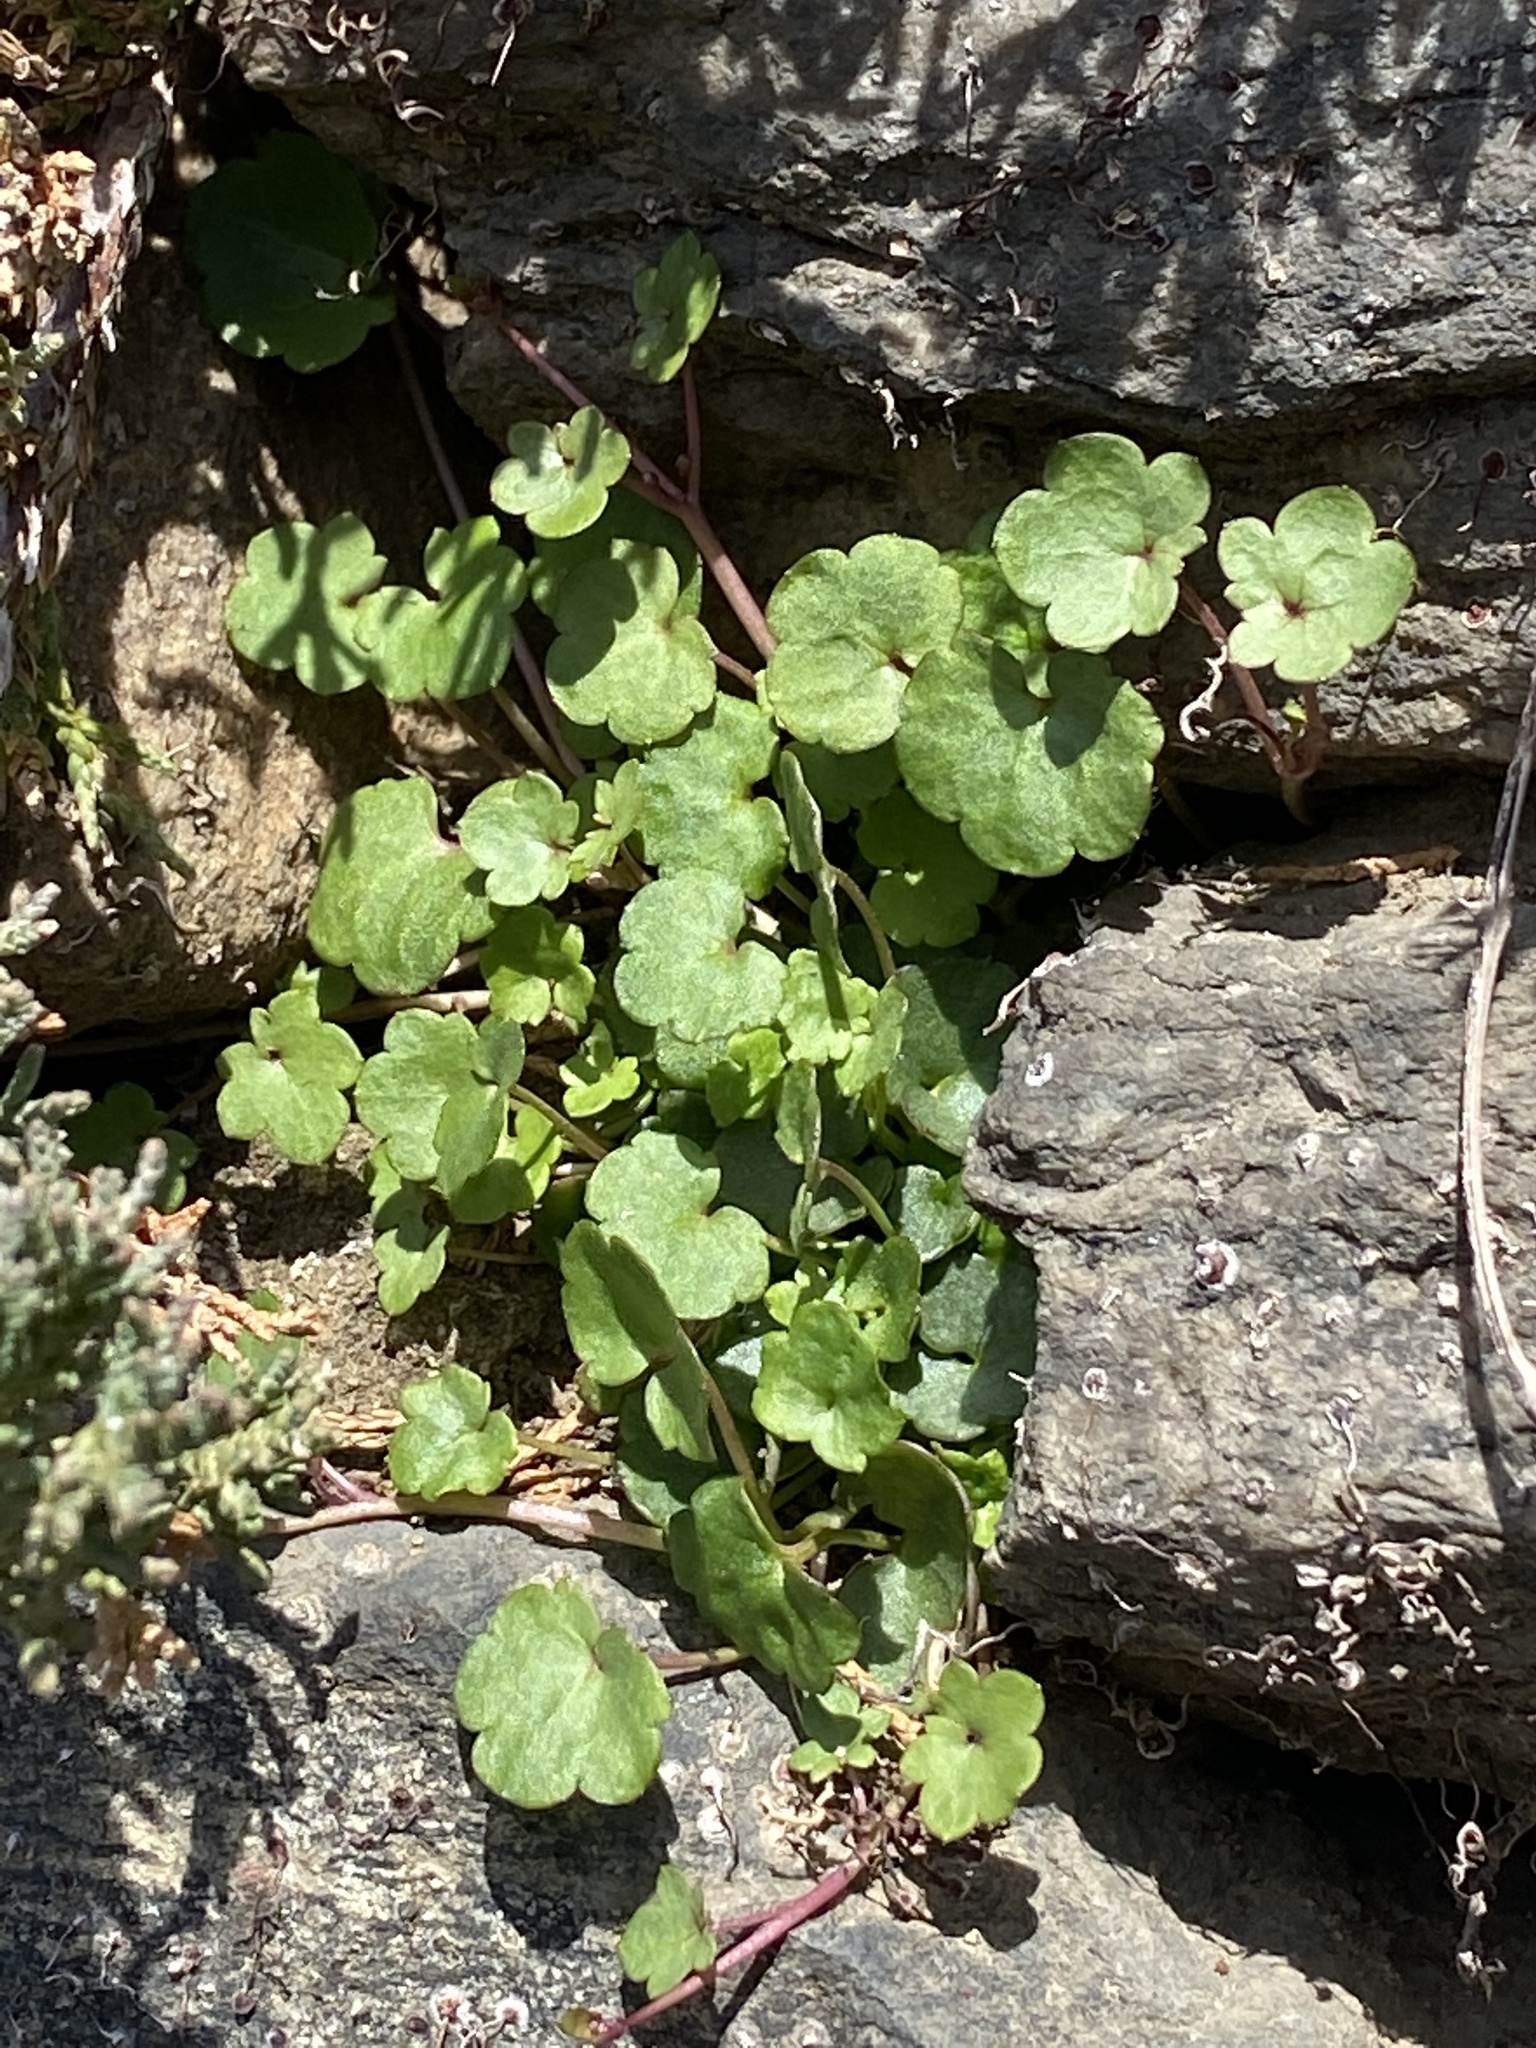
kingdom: Plantae
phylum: Tracheophyta
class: Magnoliopsida
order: Lamiales
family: Plantaginaceae
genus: Cymbalaria
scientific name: Cymbalaria muralis
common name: Ivy-leaved toadflax
